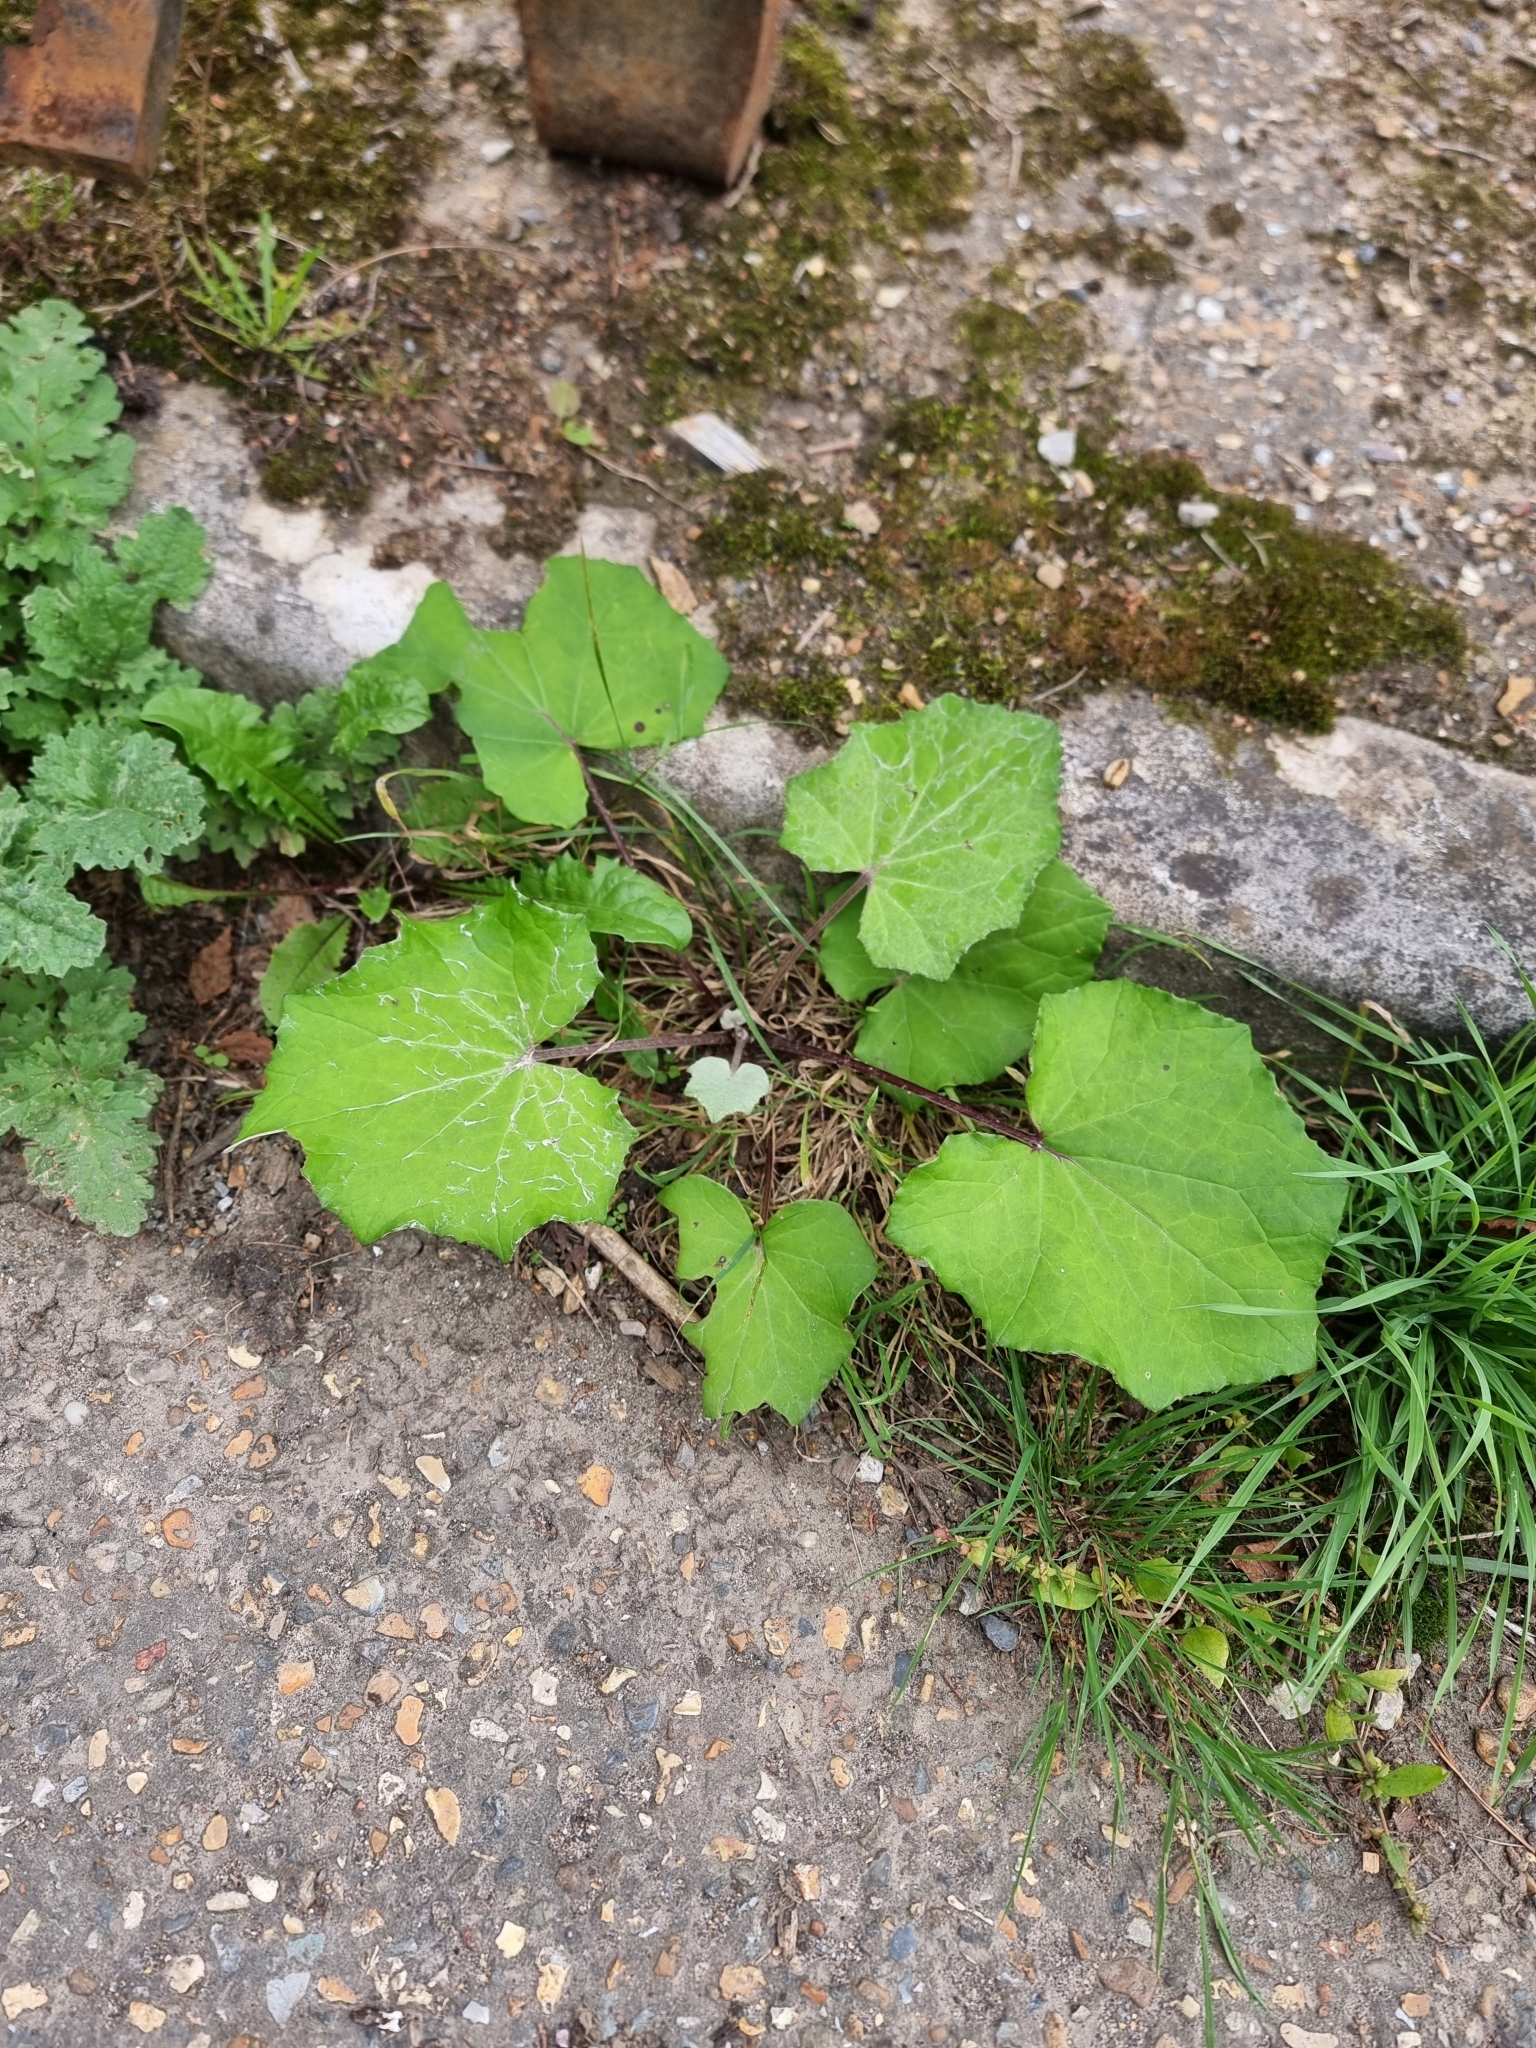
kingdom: Plantae
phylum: Tracheophyta
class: Magnoliopsida
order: Asterales
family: Asteraceae
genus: Tussilago
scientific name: Tussilago farfara
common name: Coltsfoot
